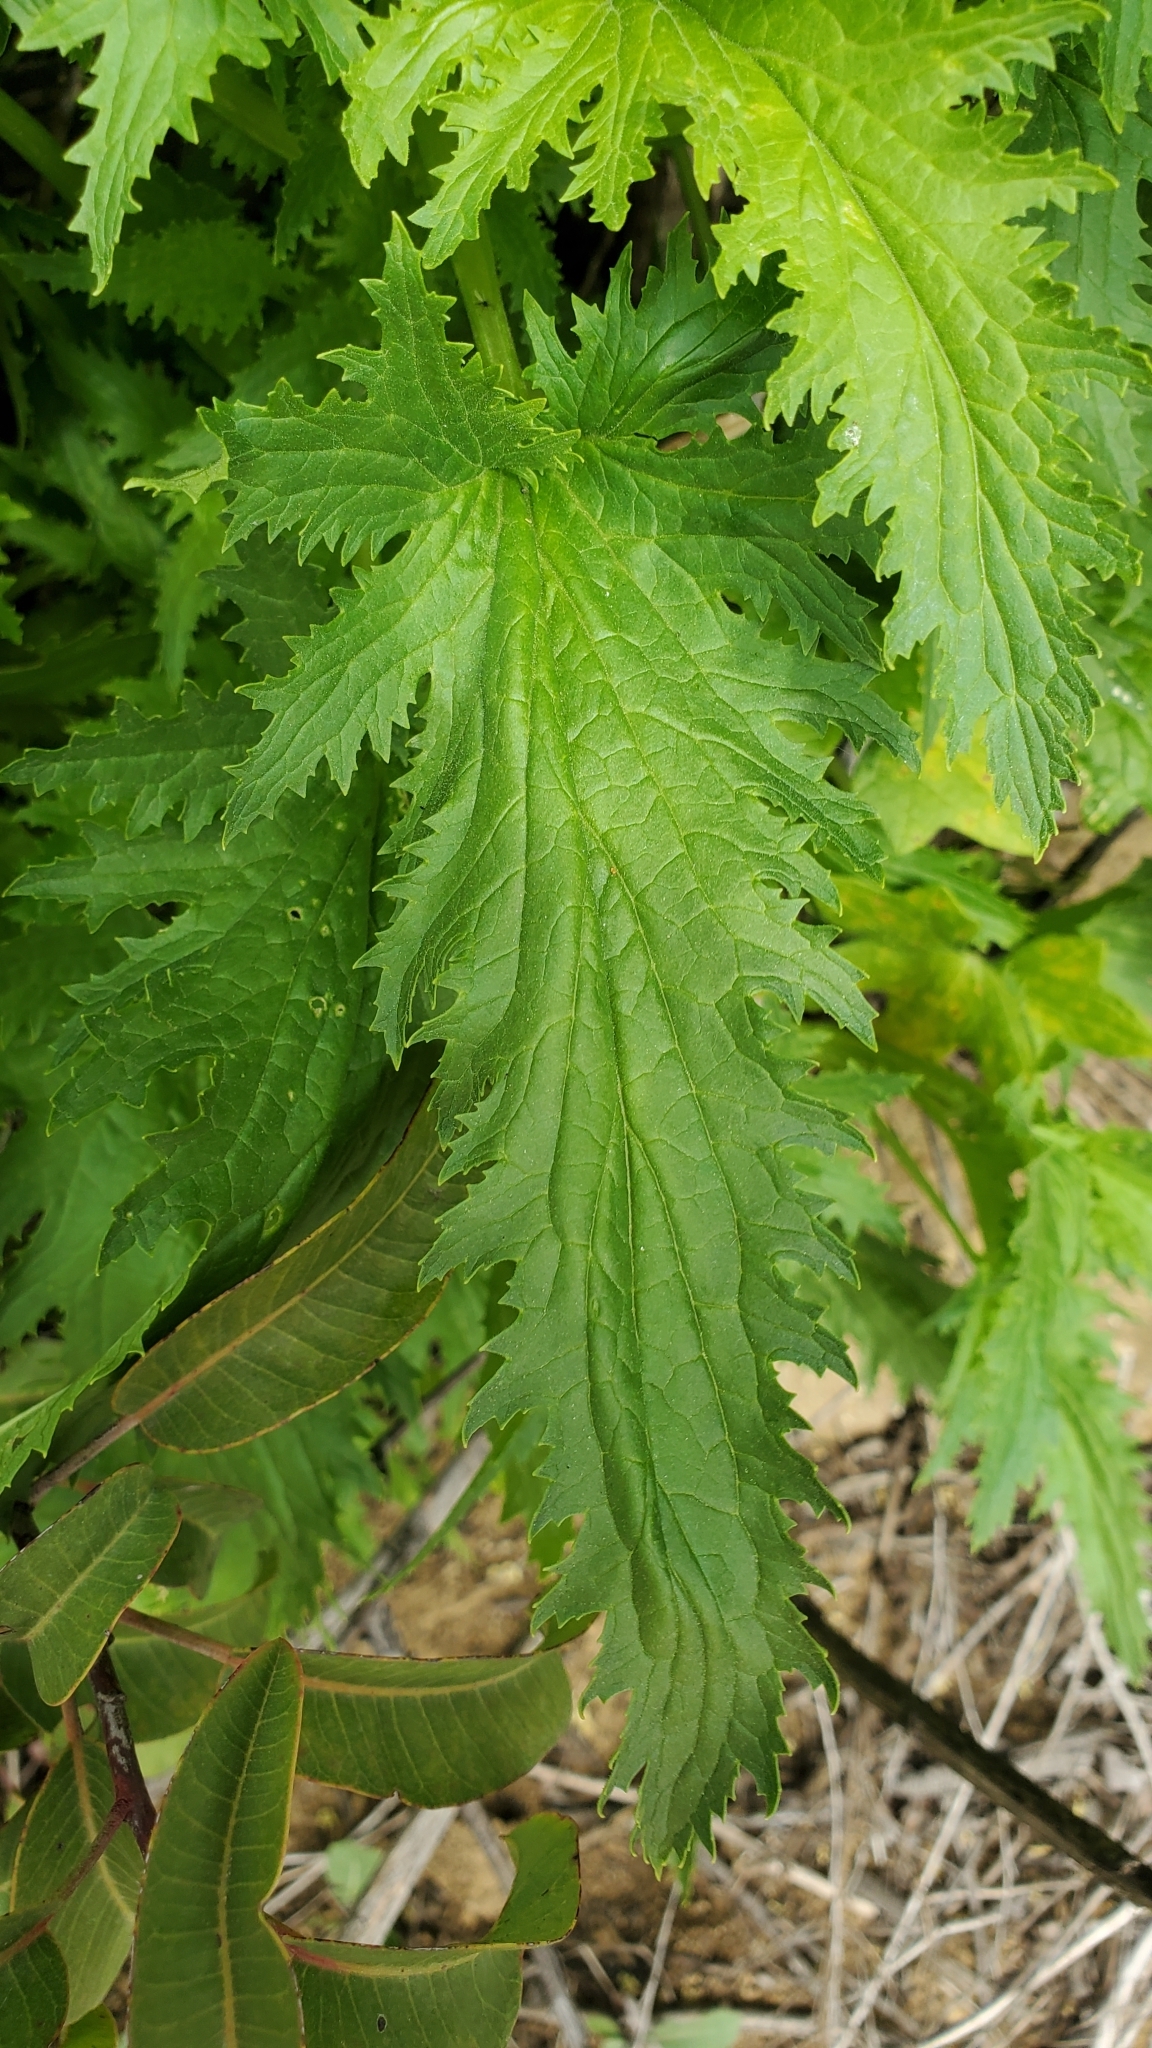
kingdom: Plantae
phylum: Tracheophyta
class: Magnoliopsida
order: Lamiales
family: Scrophulariaceae
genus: Scrophularia
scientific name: Scrophularia californica
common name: California figwort
